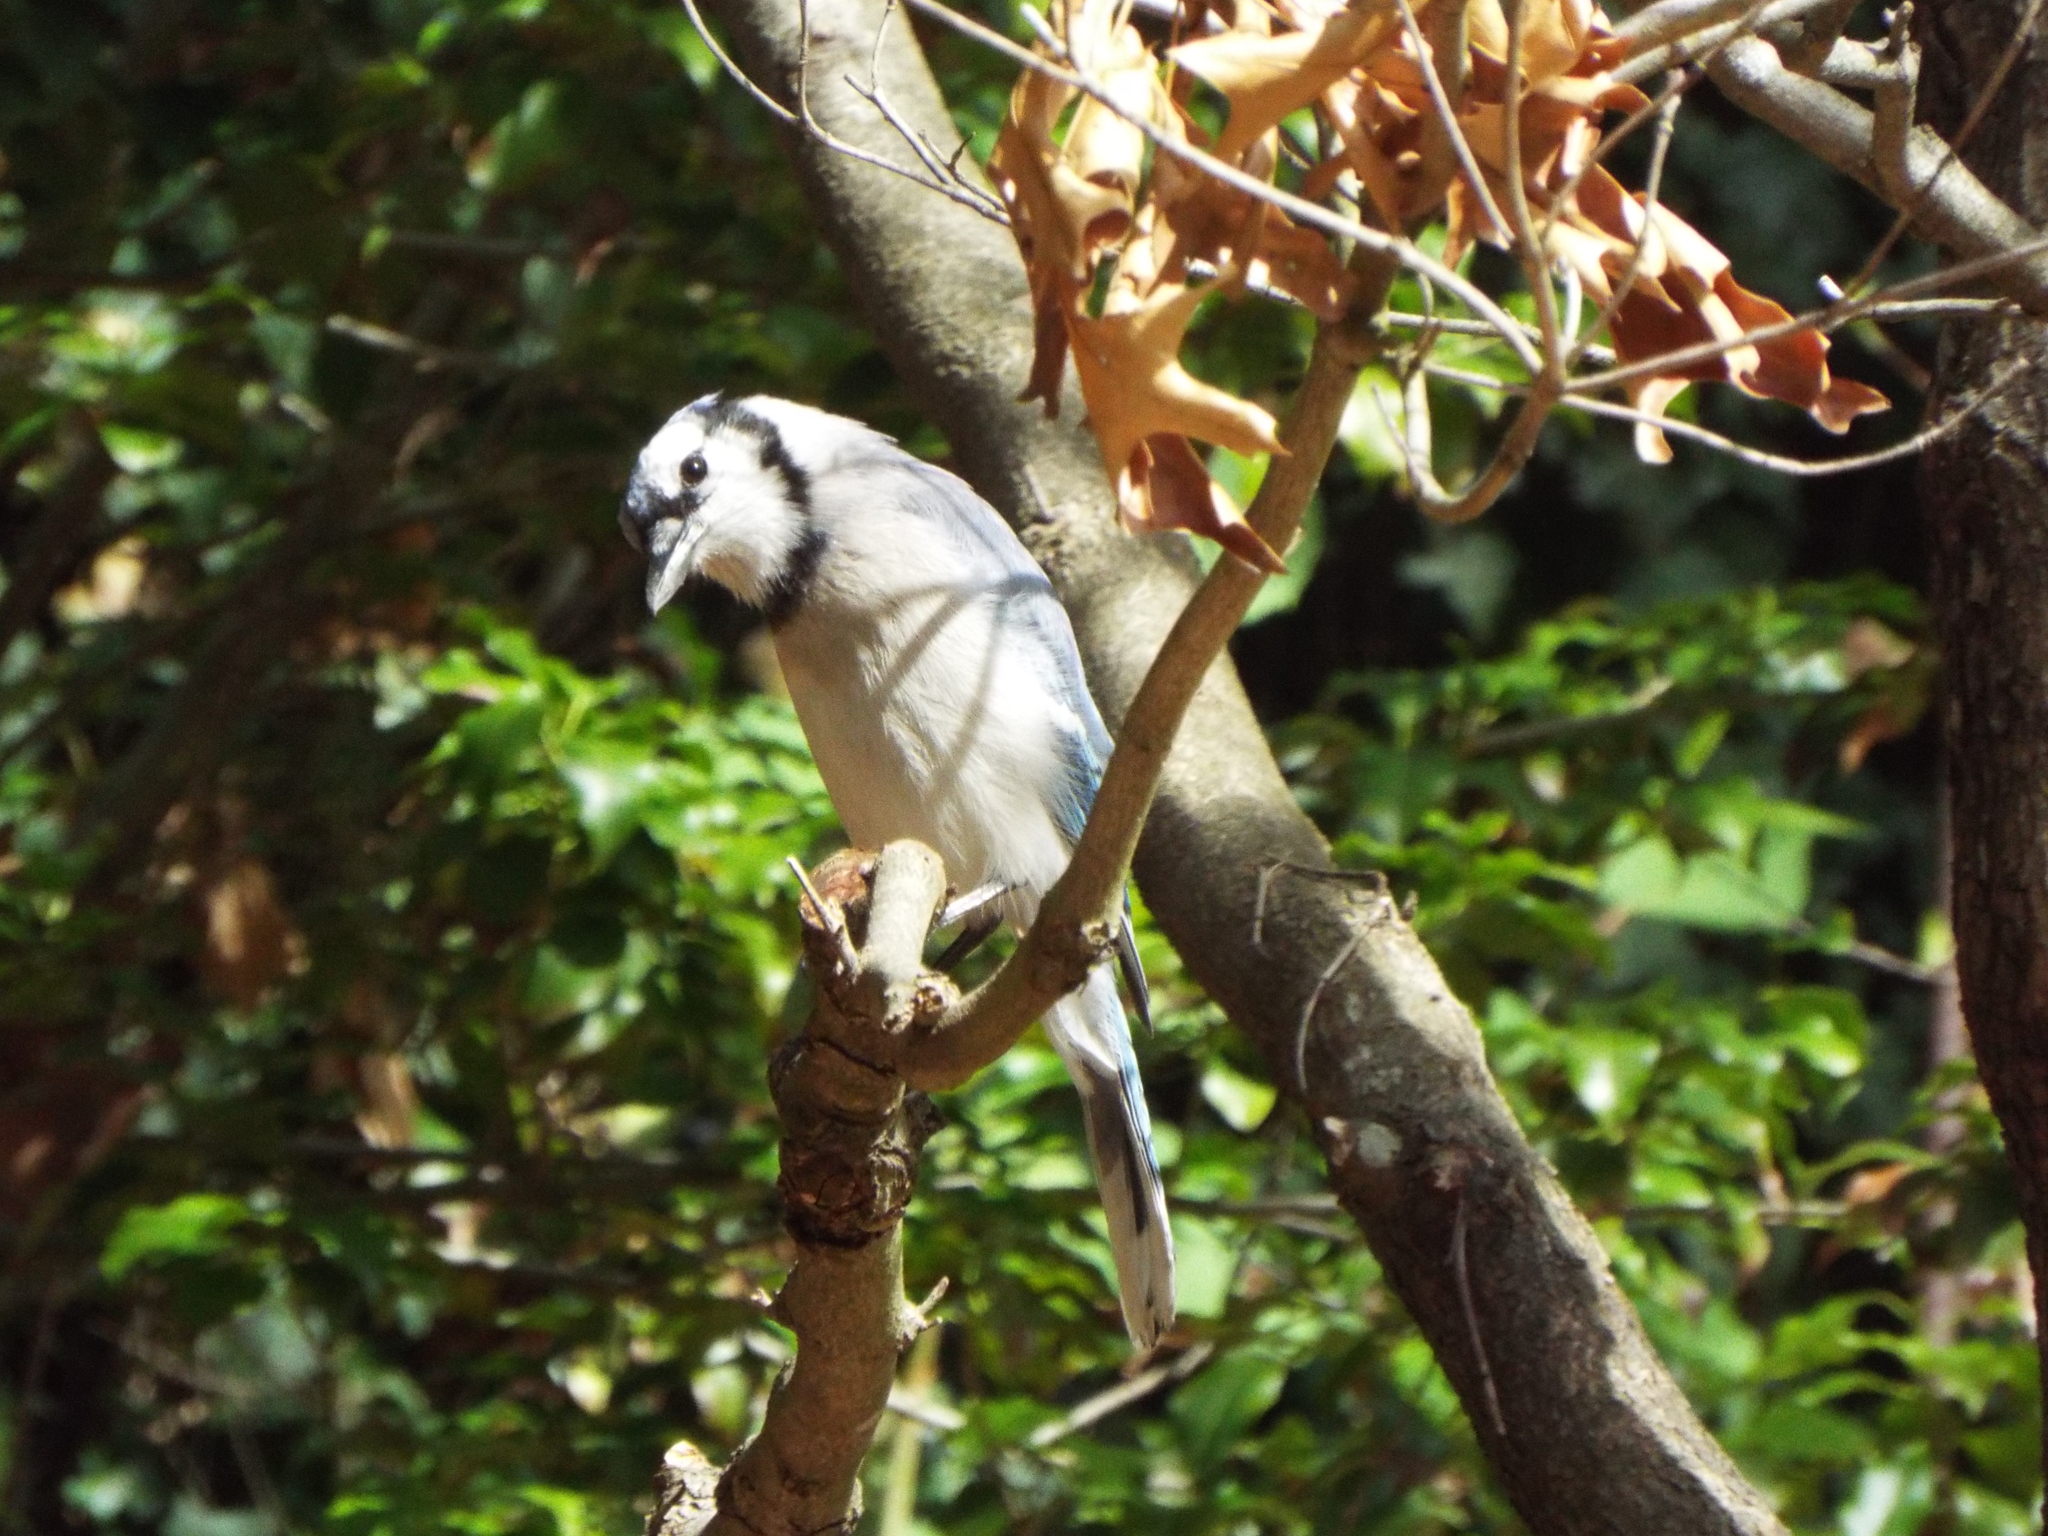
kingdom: Animalia
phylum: Chordata
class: Aves
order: Passeriformes
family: Corvidae
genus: Cyanocitta
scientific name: Cyanocitta cristata
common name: Blue jay
